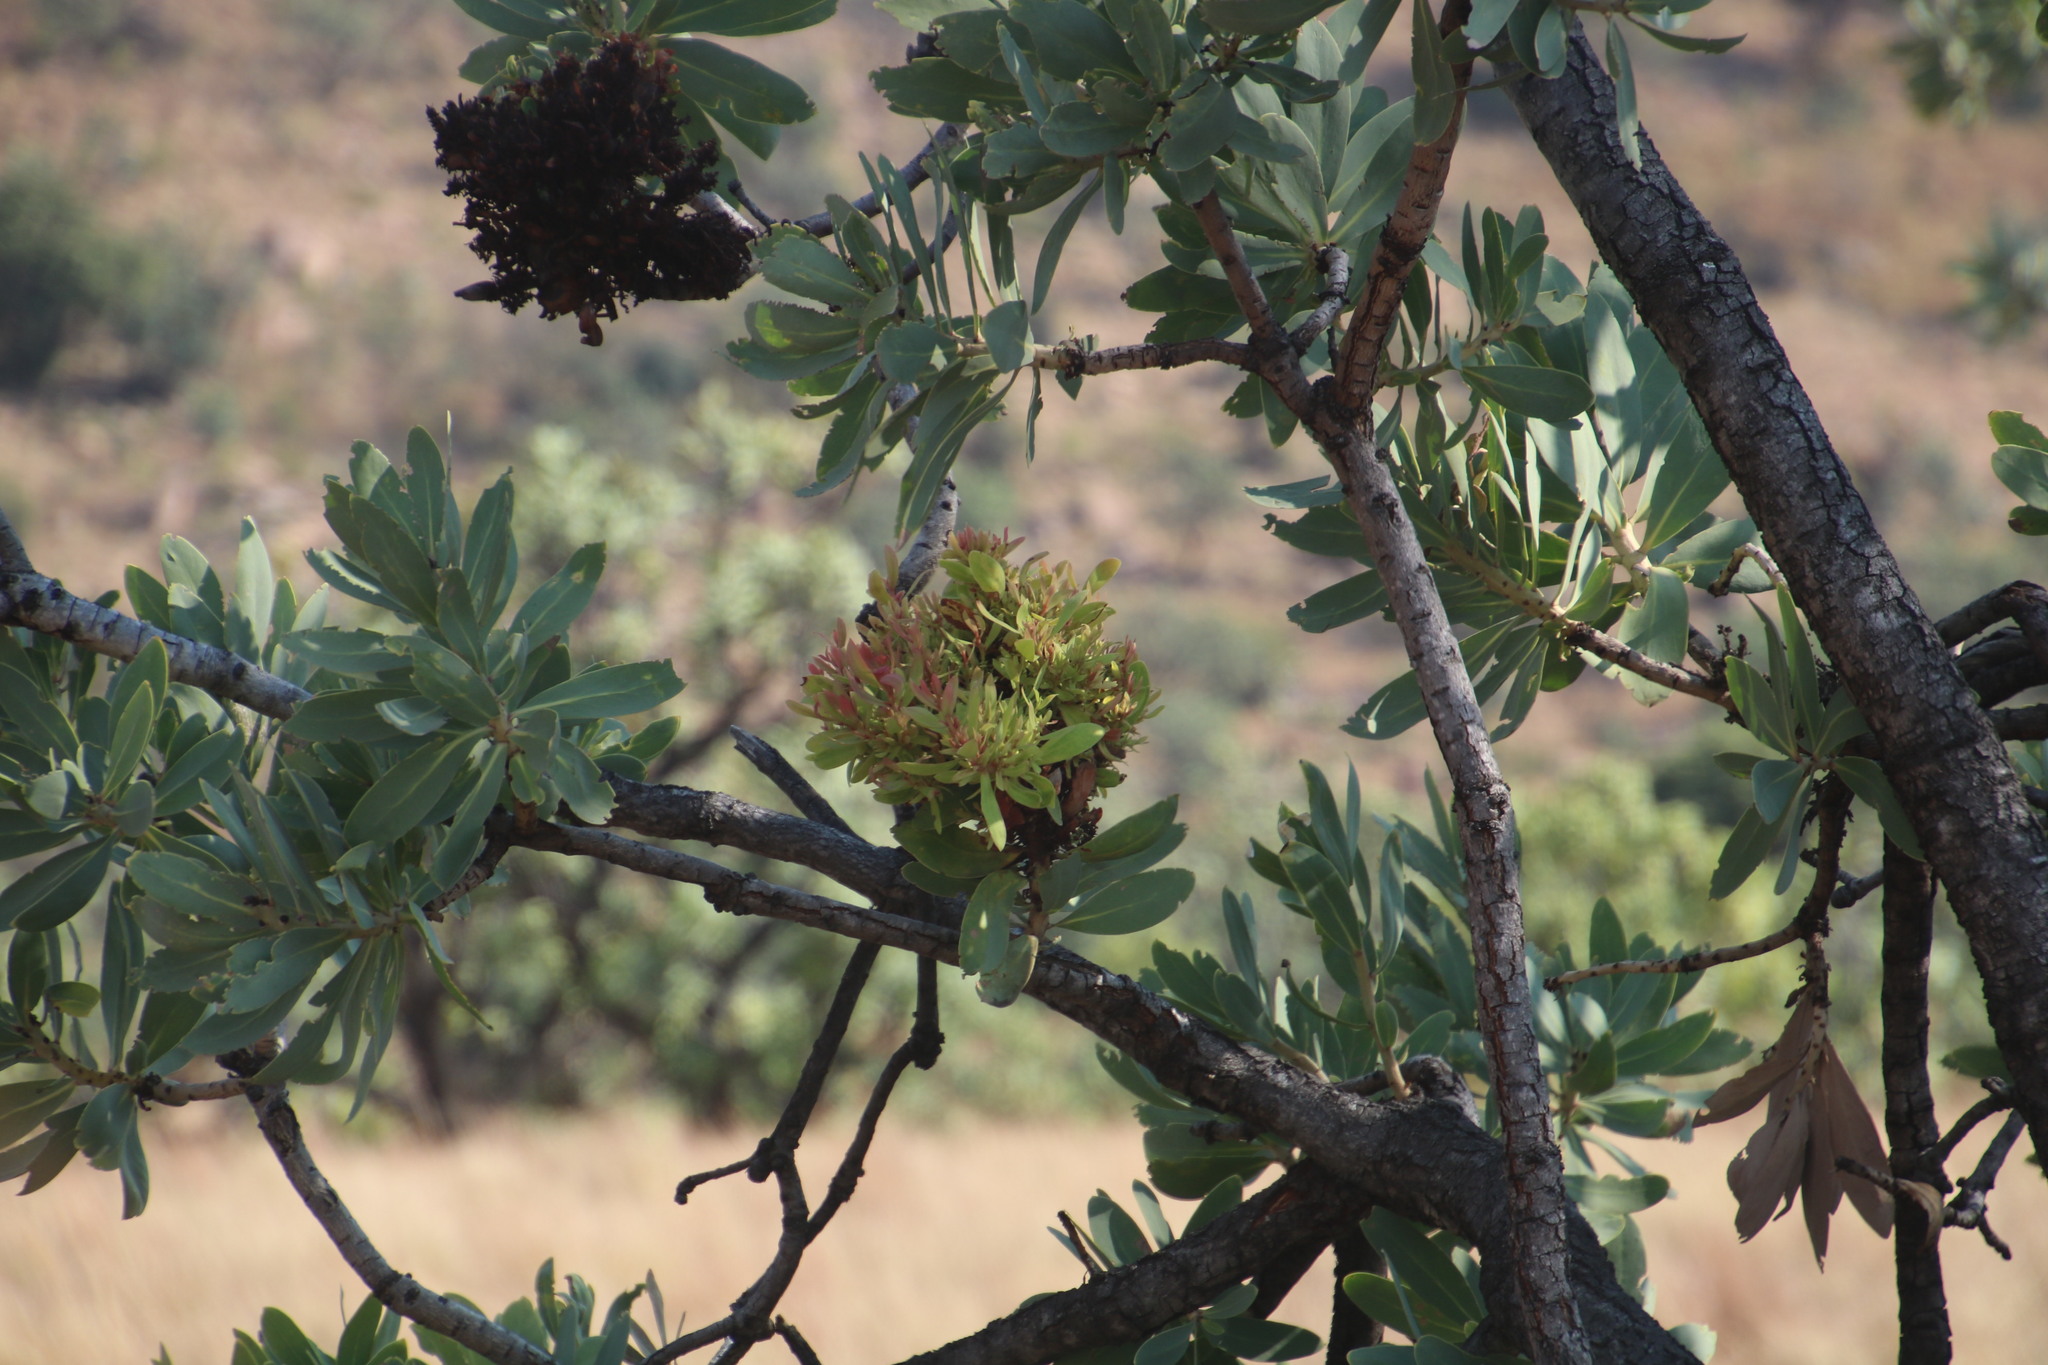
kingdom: Plantae
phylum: Tracheophyta
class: Magnoliopsida
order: Proteales
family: Proteaceae
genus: Protea
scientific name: Protea caffra
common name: Common sugarbush
